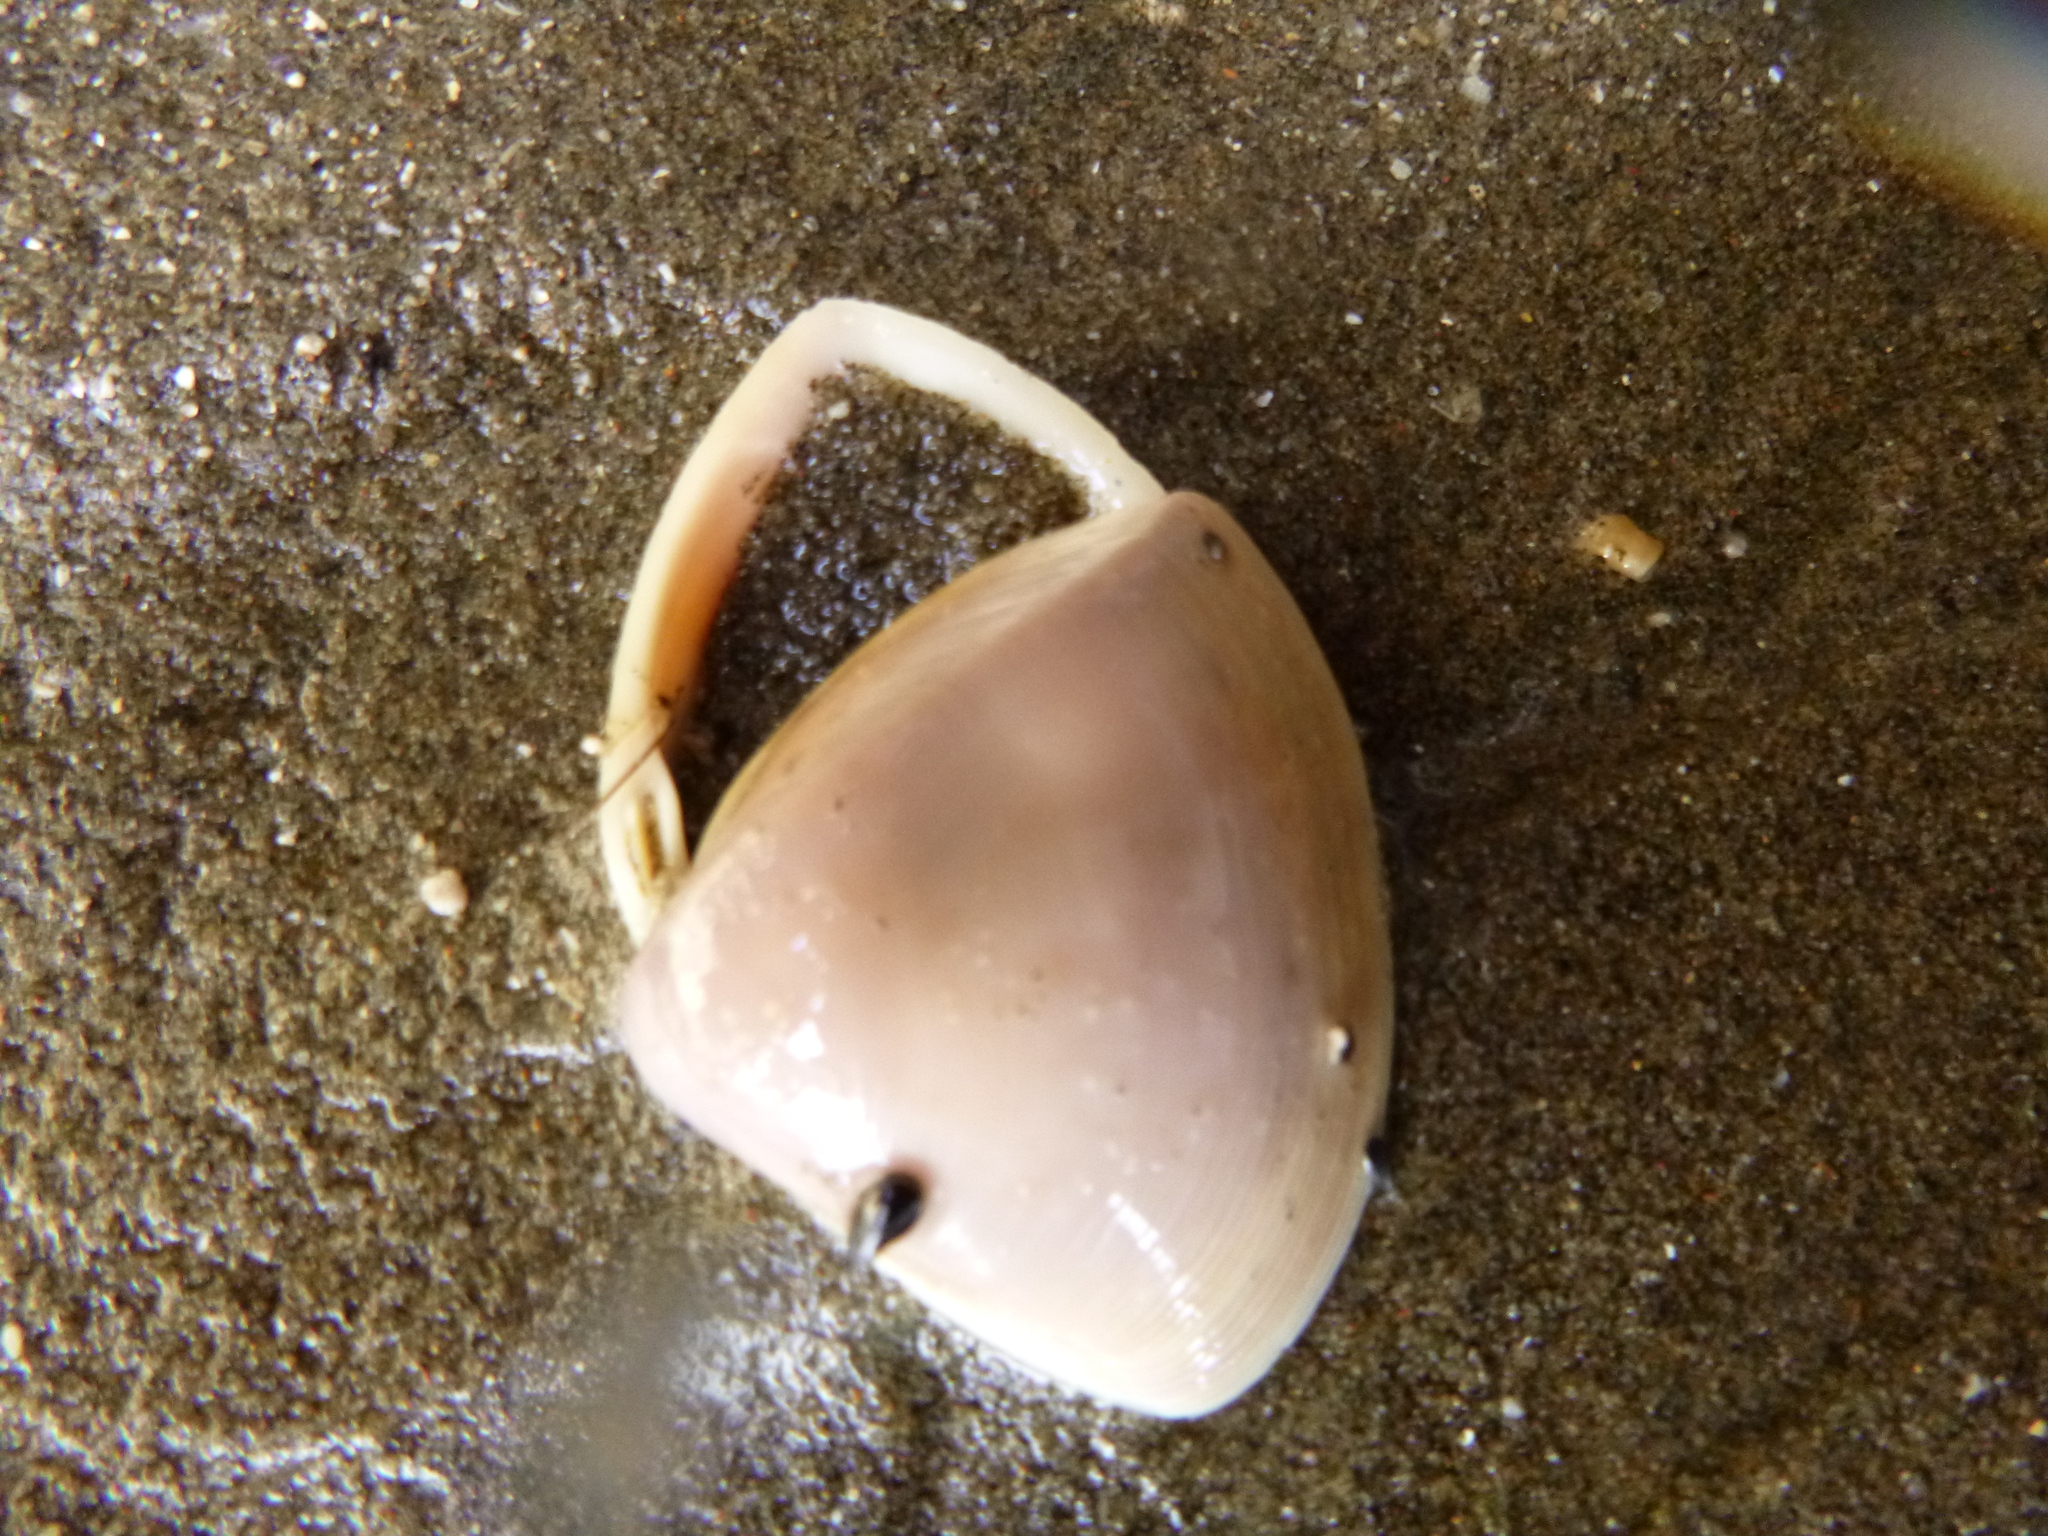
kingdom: Animalia
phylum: Mollusca
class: Bivalvia
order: Venerida
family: Mactridae
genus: Crassula
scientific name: Crassula aequilatera
